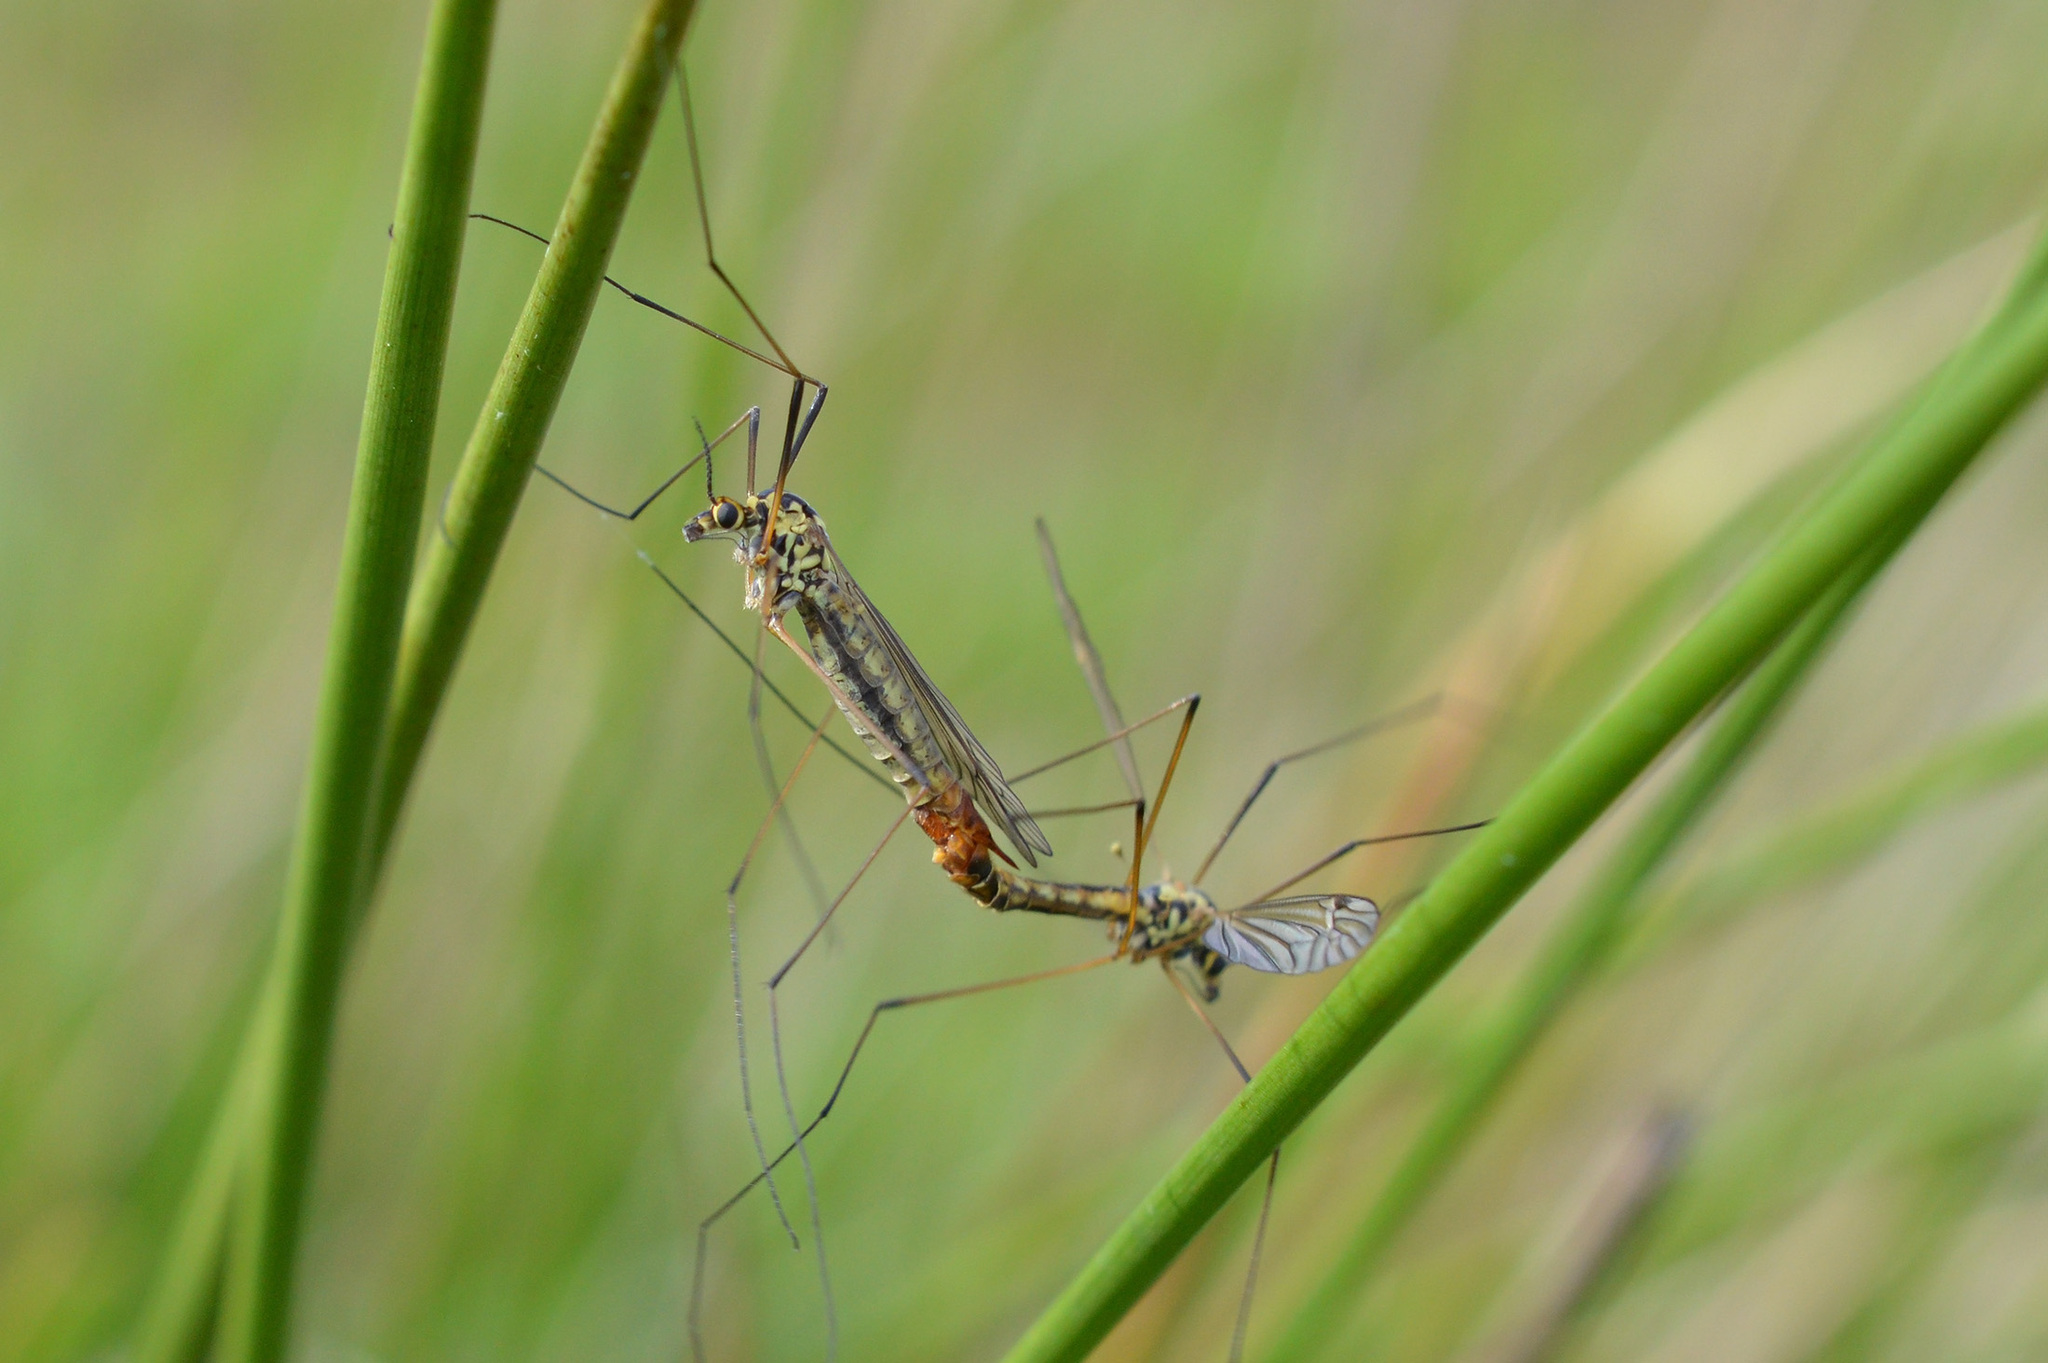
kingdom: Animalia
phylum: Arthropoda
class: Insecta
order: Diptera
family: Tipulidae
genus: Nephrotoma
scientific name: Nephrotoma appendiculata
